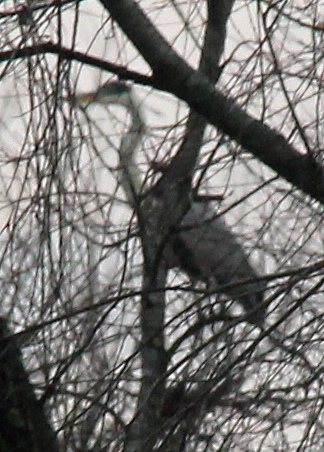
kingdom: Animalia
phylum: Chordata
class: Aves
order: Pelecaniformes
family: Ardeidae
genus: Ardea
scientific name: Ardea cocoi
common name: Cocoi heron
